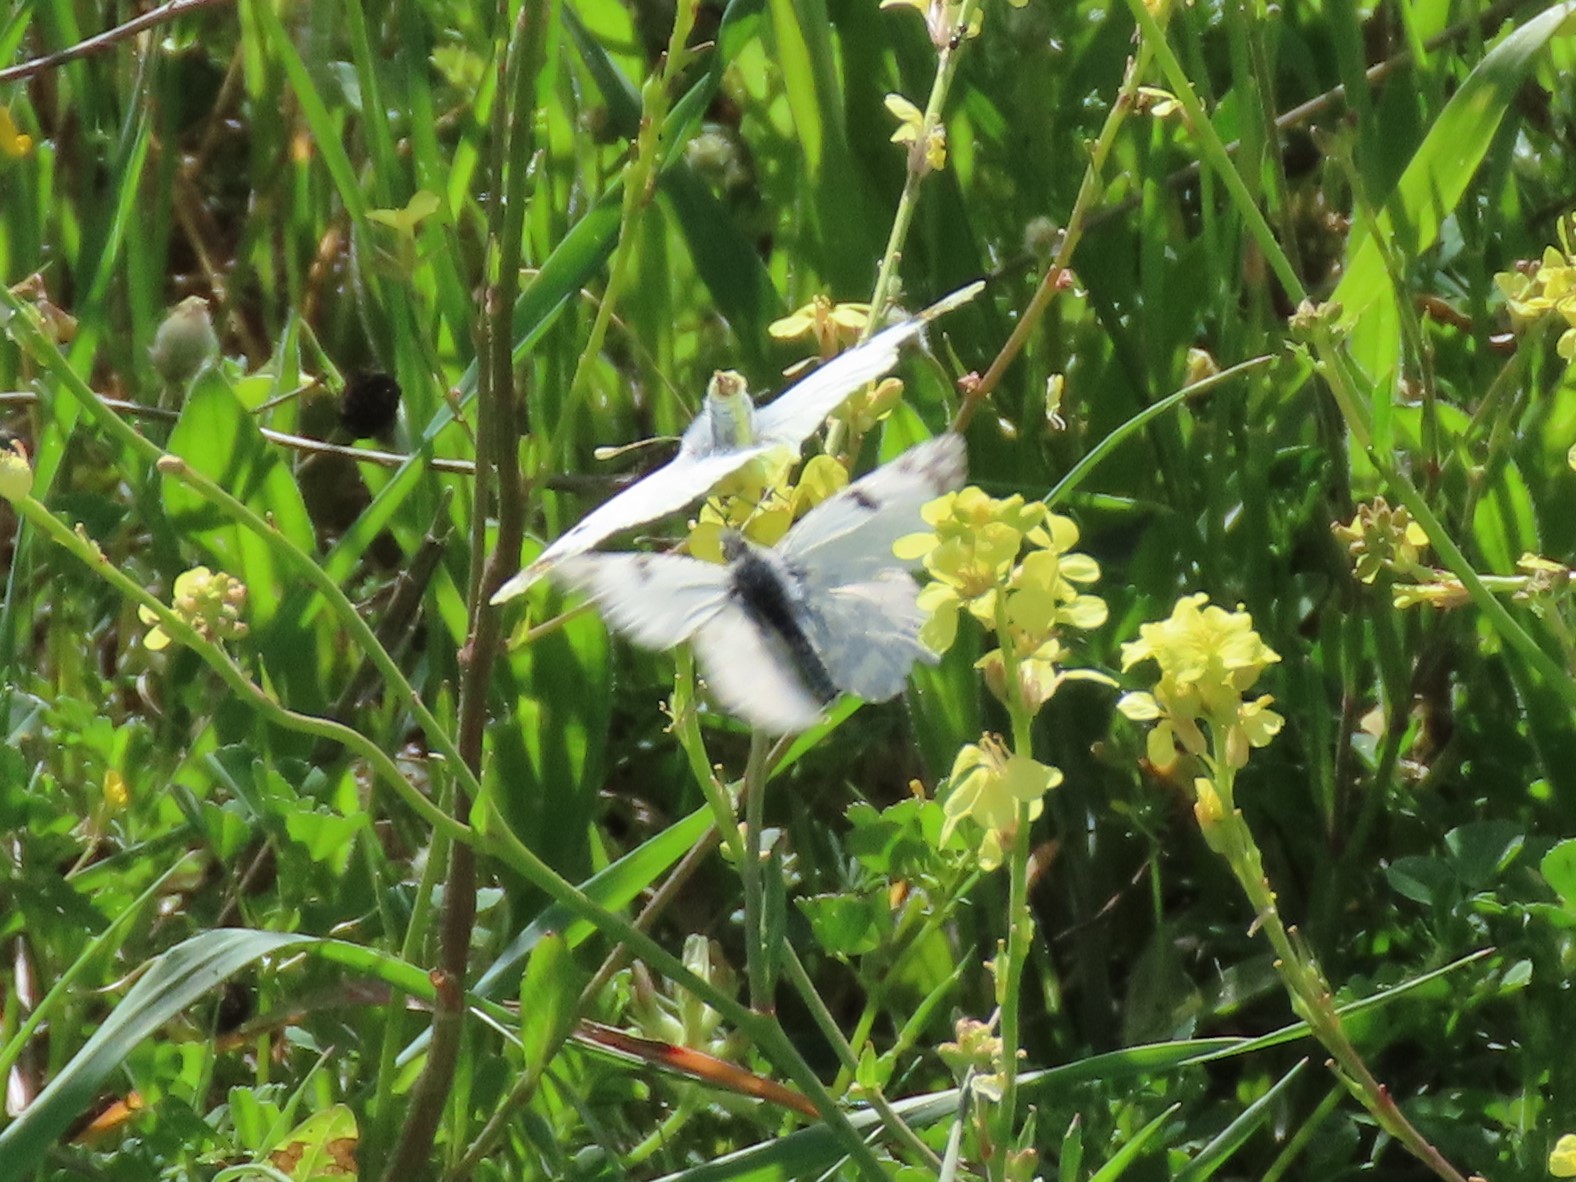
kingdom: Animalia
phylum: Arthropoda
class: Insecta
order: Lepidoptera
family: Pieridae
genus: Euchloe
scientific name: Euchloe crameri
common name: Western dappled white
